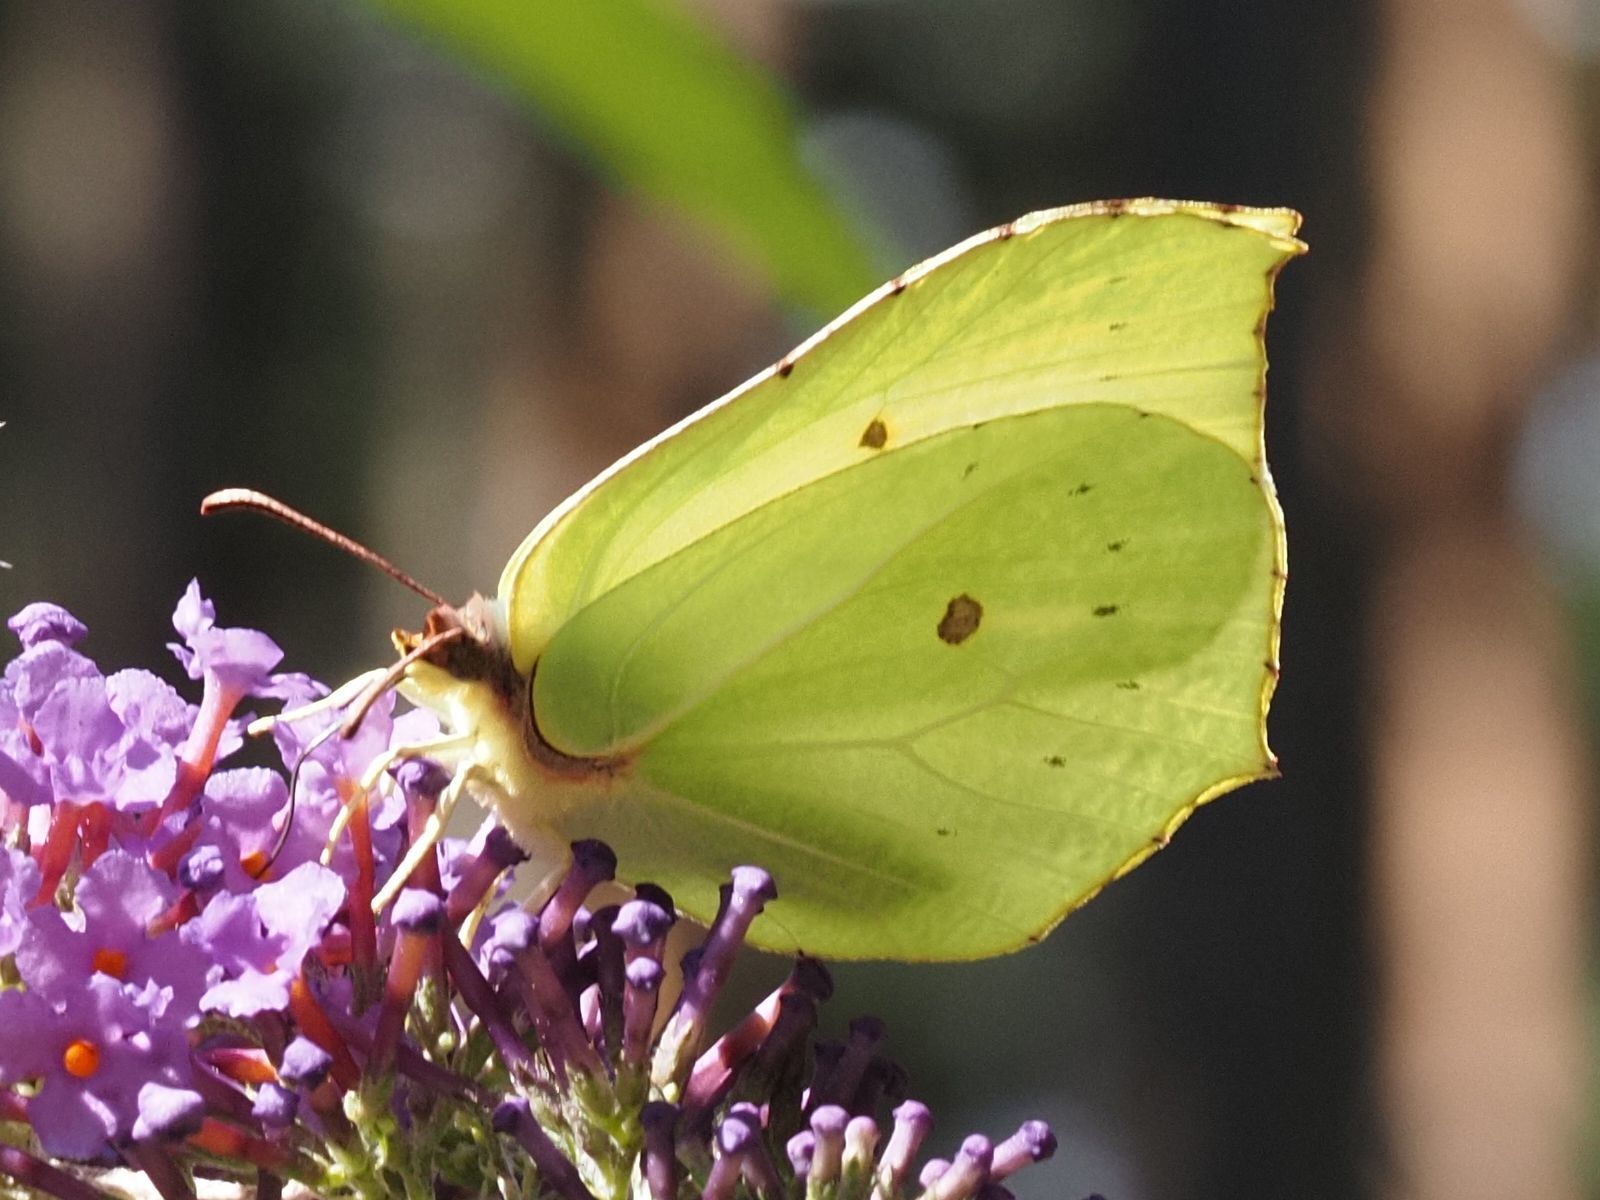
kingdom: Animalia
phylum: Arthropoda
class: Insecta
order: Lepidoptera
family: Pieridae
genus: Gonepteryx
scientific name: Gonepteryx rhamni
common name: Brimstone
